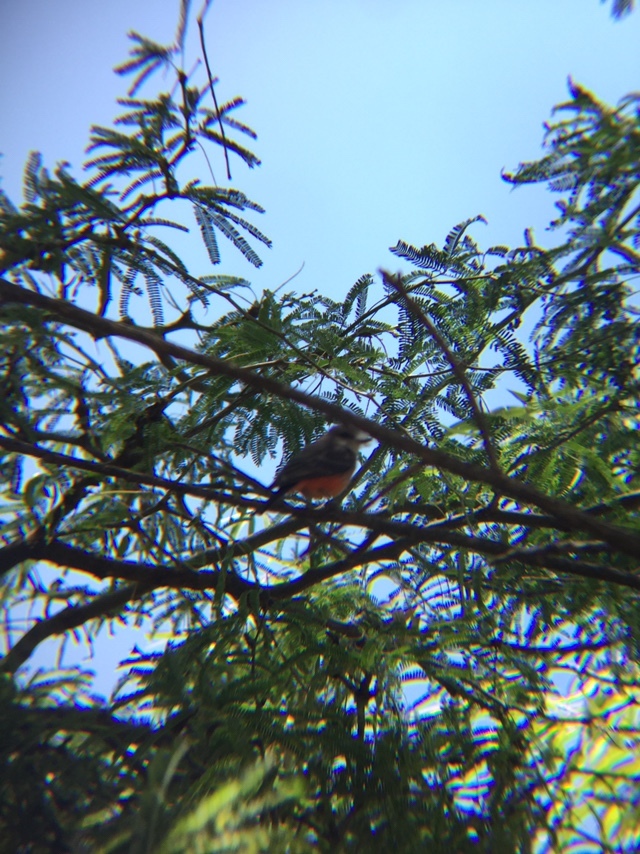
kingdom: Animalia
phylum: Chordata
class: Aves
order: Passeriformes
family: Tyrannidae
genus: Pyrocephalus
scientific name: Pyrocephalus rubinus
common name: Vermilion flycatcher
